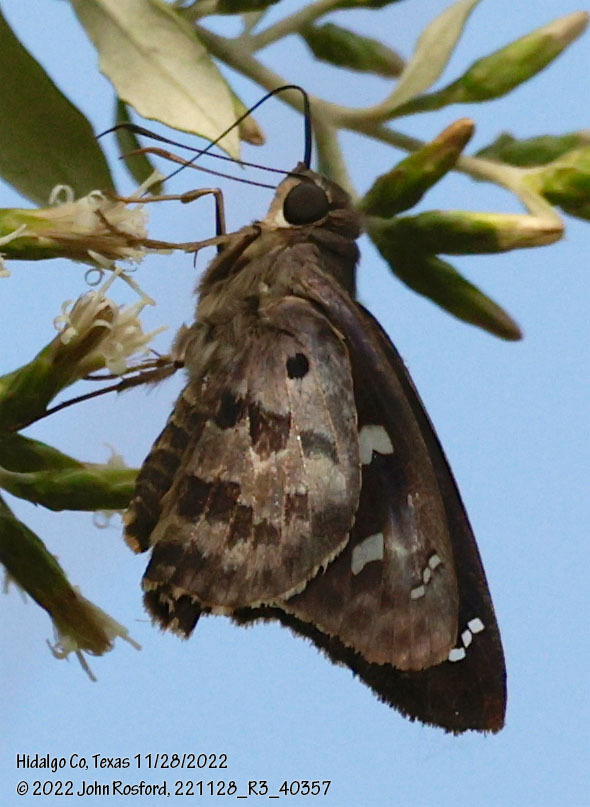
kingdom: Animalia
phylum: Arthropoda
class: Insecta
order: Lepidoptera
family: Hesperiidae
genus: Polygonus
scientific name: Polygonus leo
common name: Hammoch skipper
